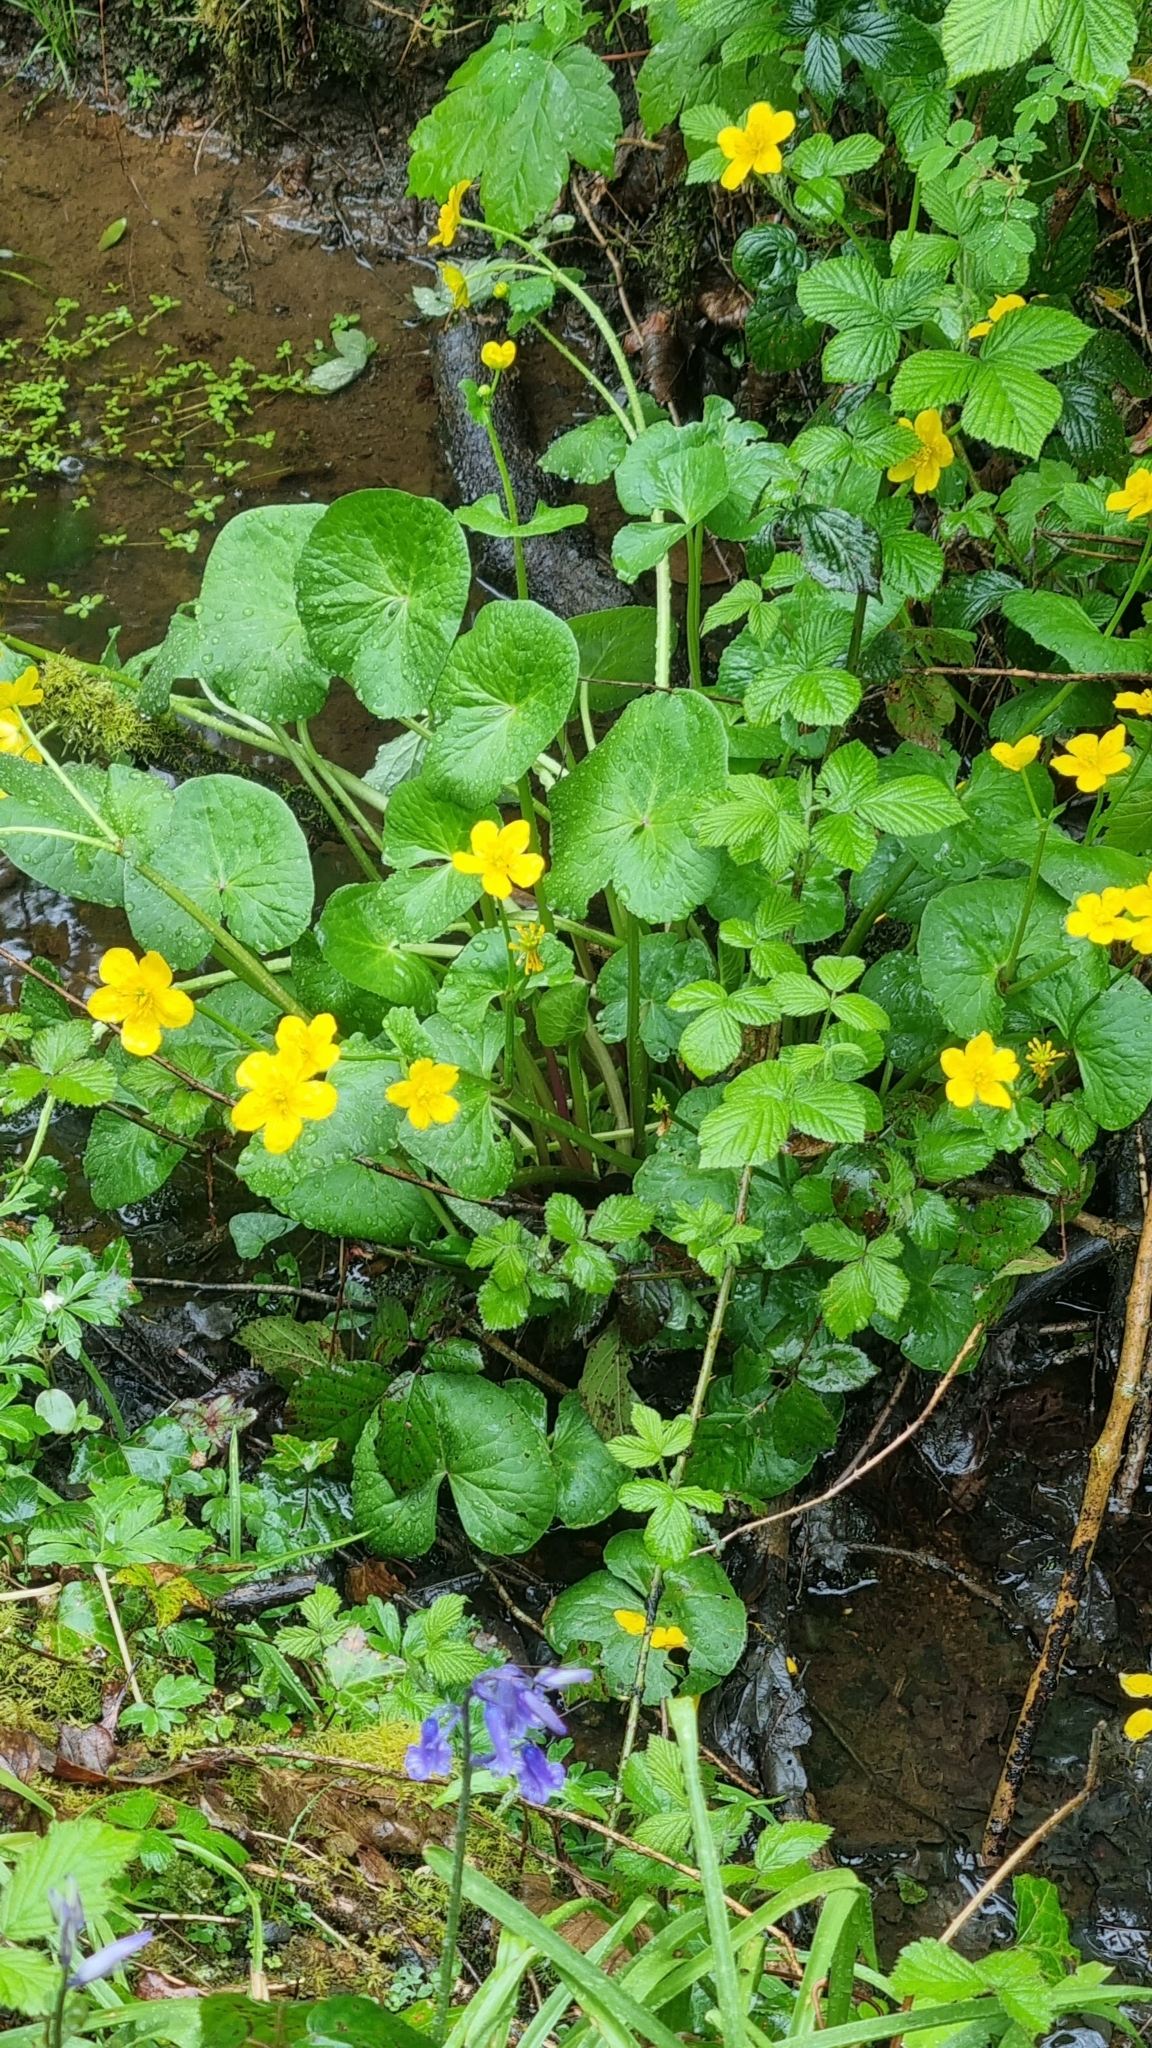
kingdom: Plantae
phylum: Tracheophyta
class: Magnoliopsida
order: Ranunculales
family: Ranunculaceae
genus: Caltha
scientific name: Caltha palustris
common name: Marsh marigold
